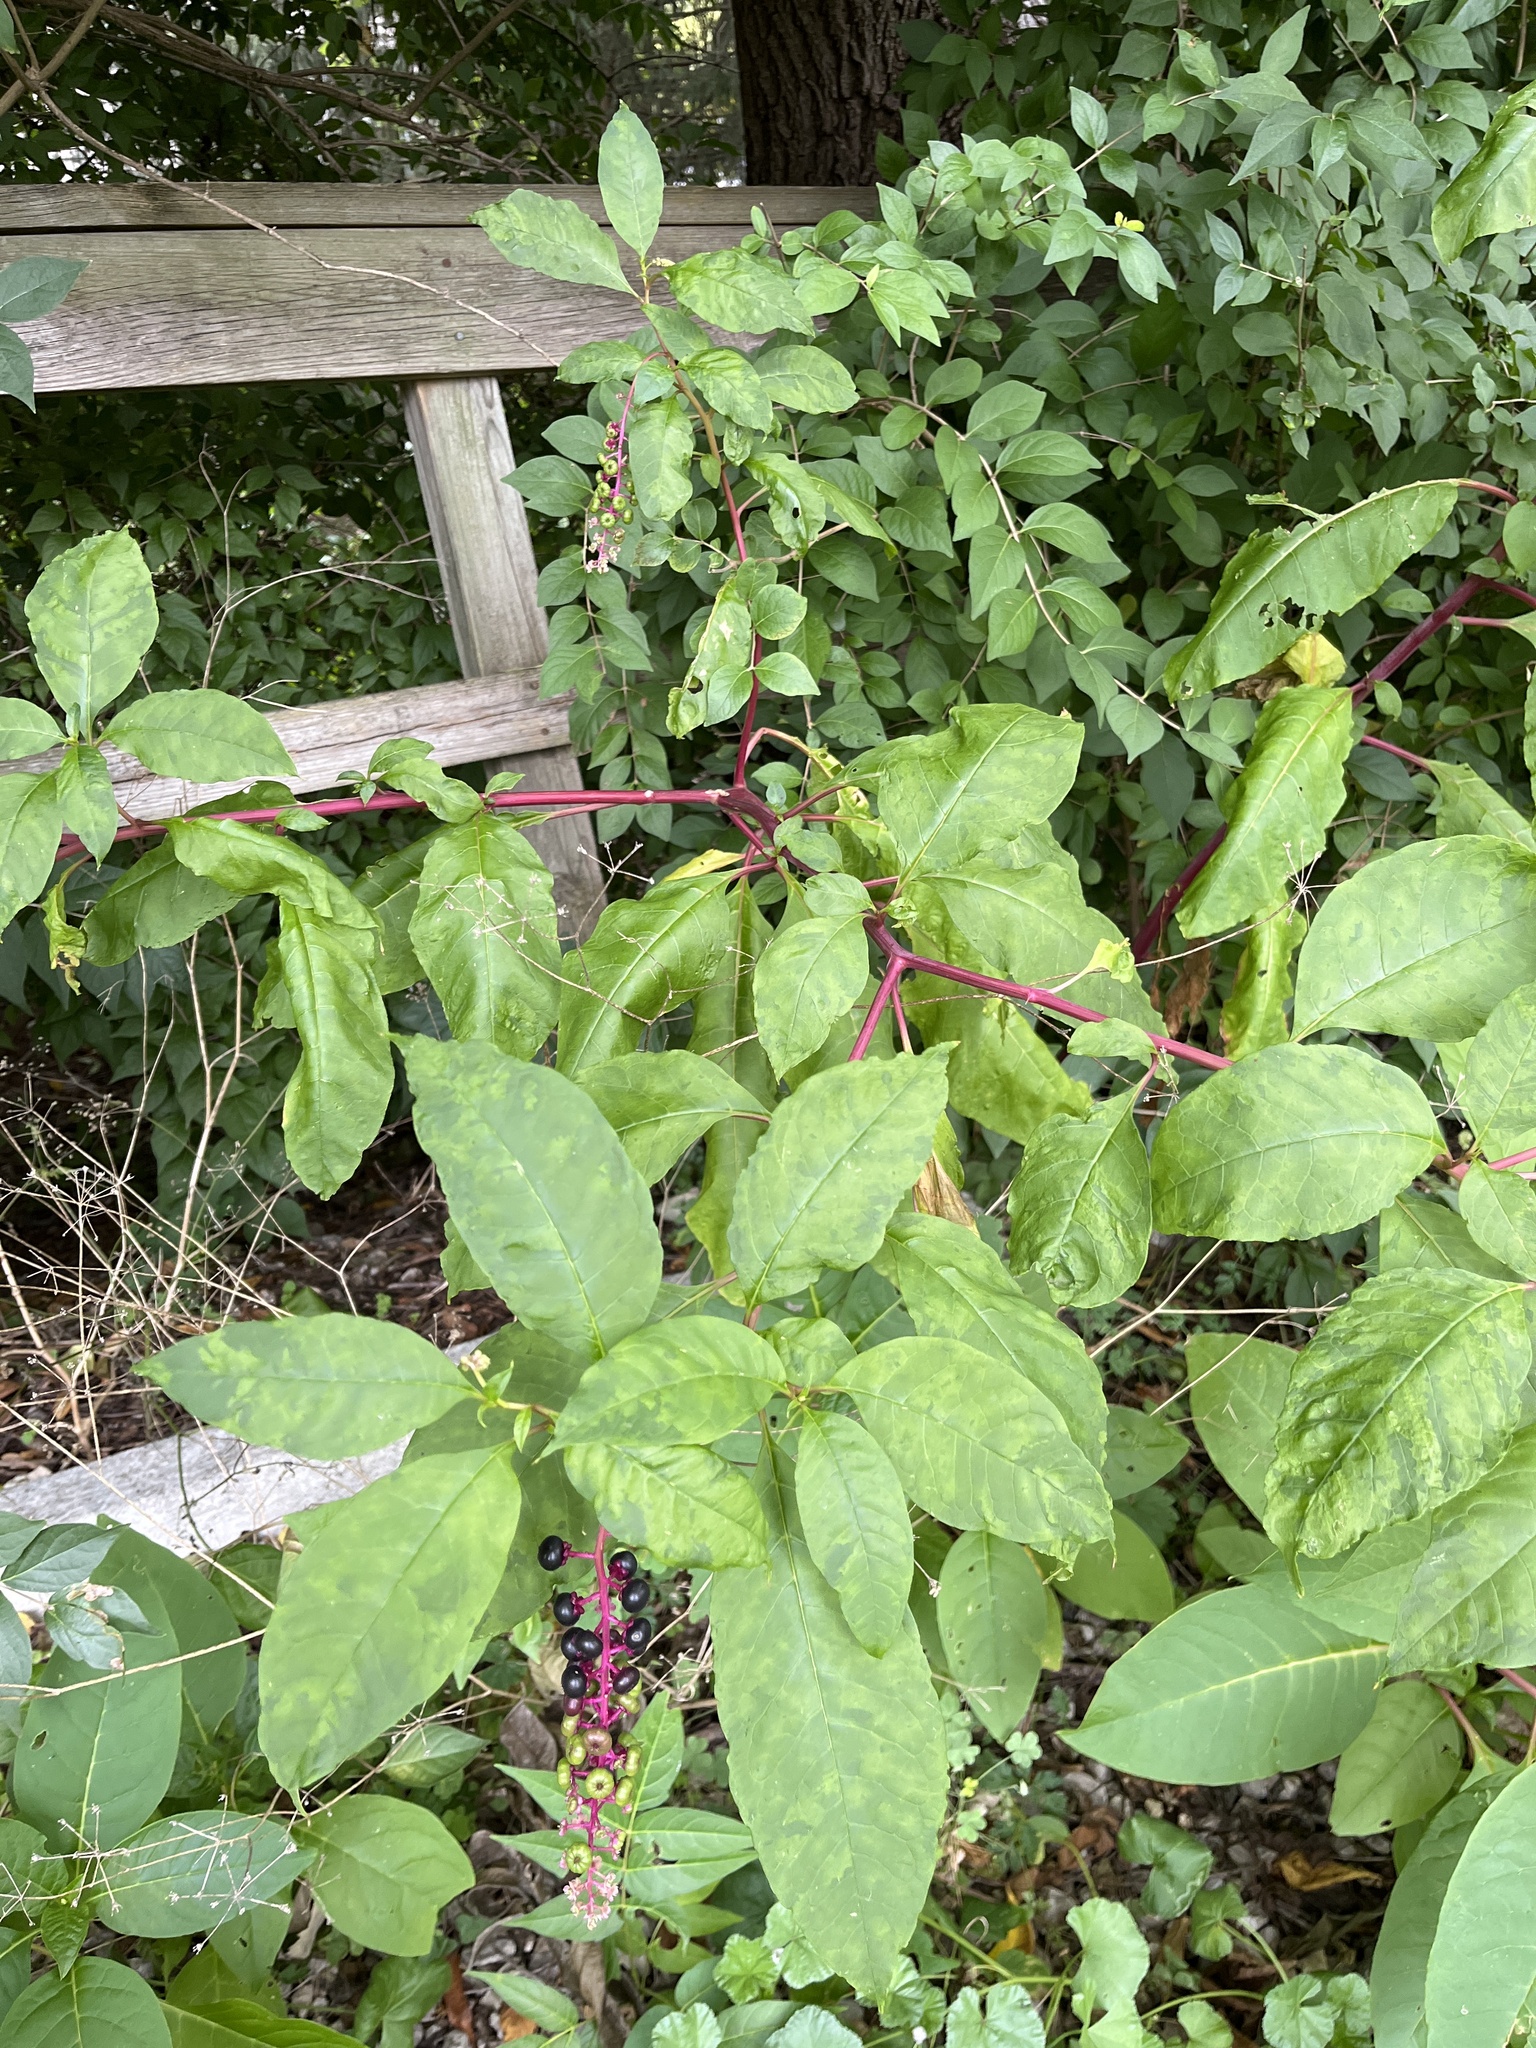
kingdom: Plantae
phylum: Tracheophyta
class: Magnoliopsida
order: Caryophyllales
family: Phytolaccaceae
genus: Phytolacca
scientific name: Phytolacca americana
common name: American pokeweed
